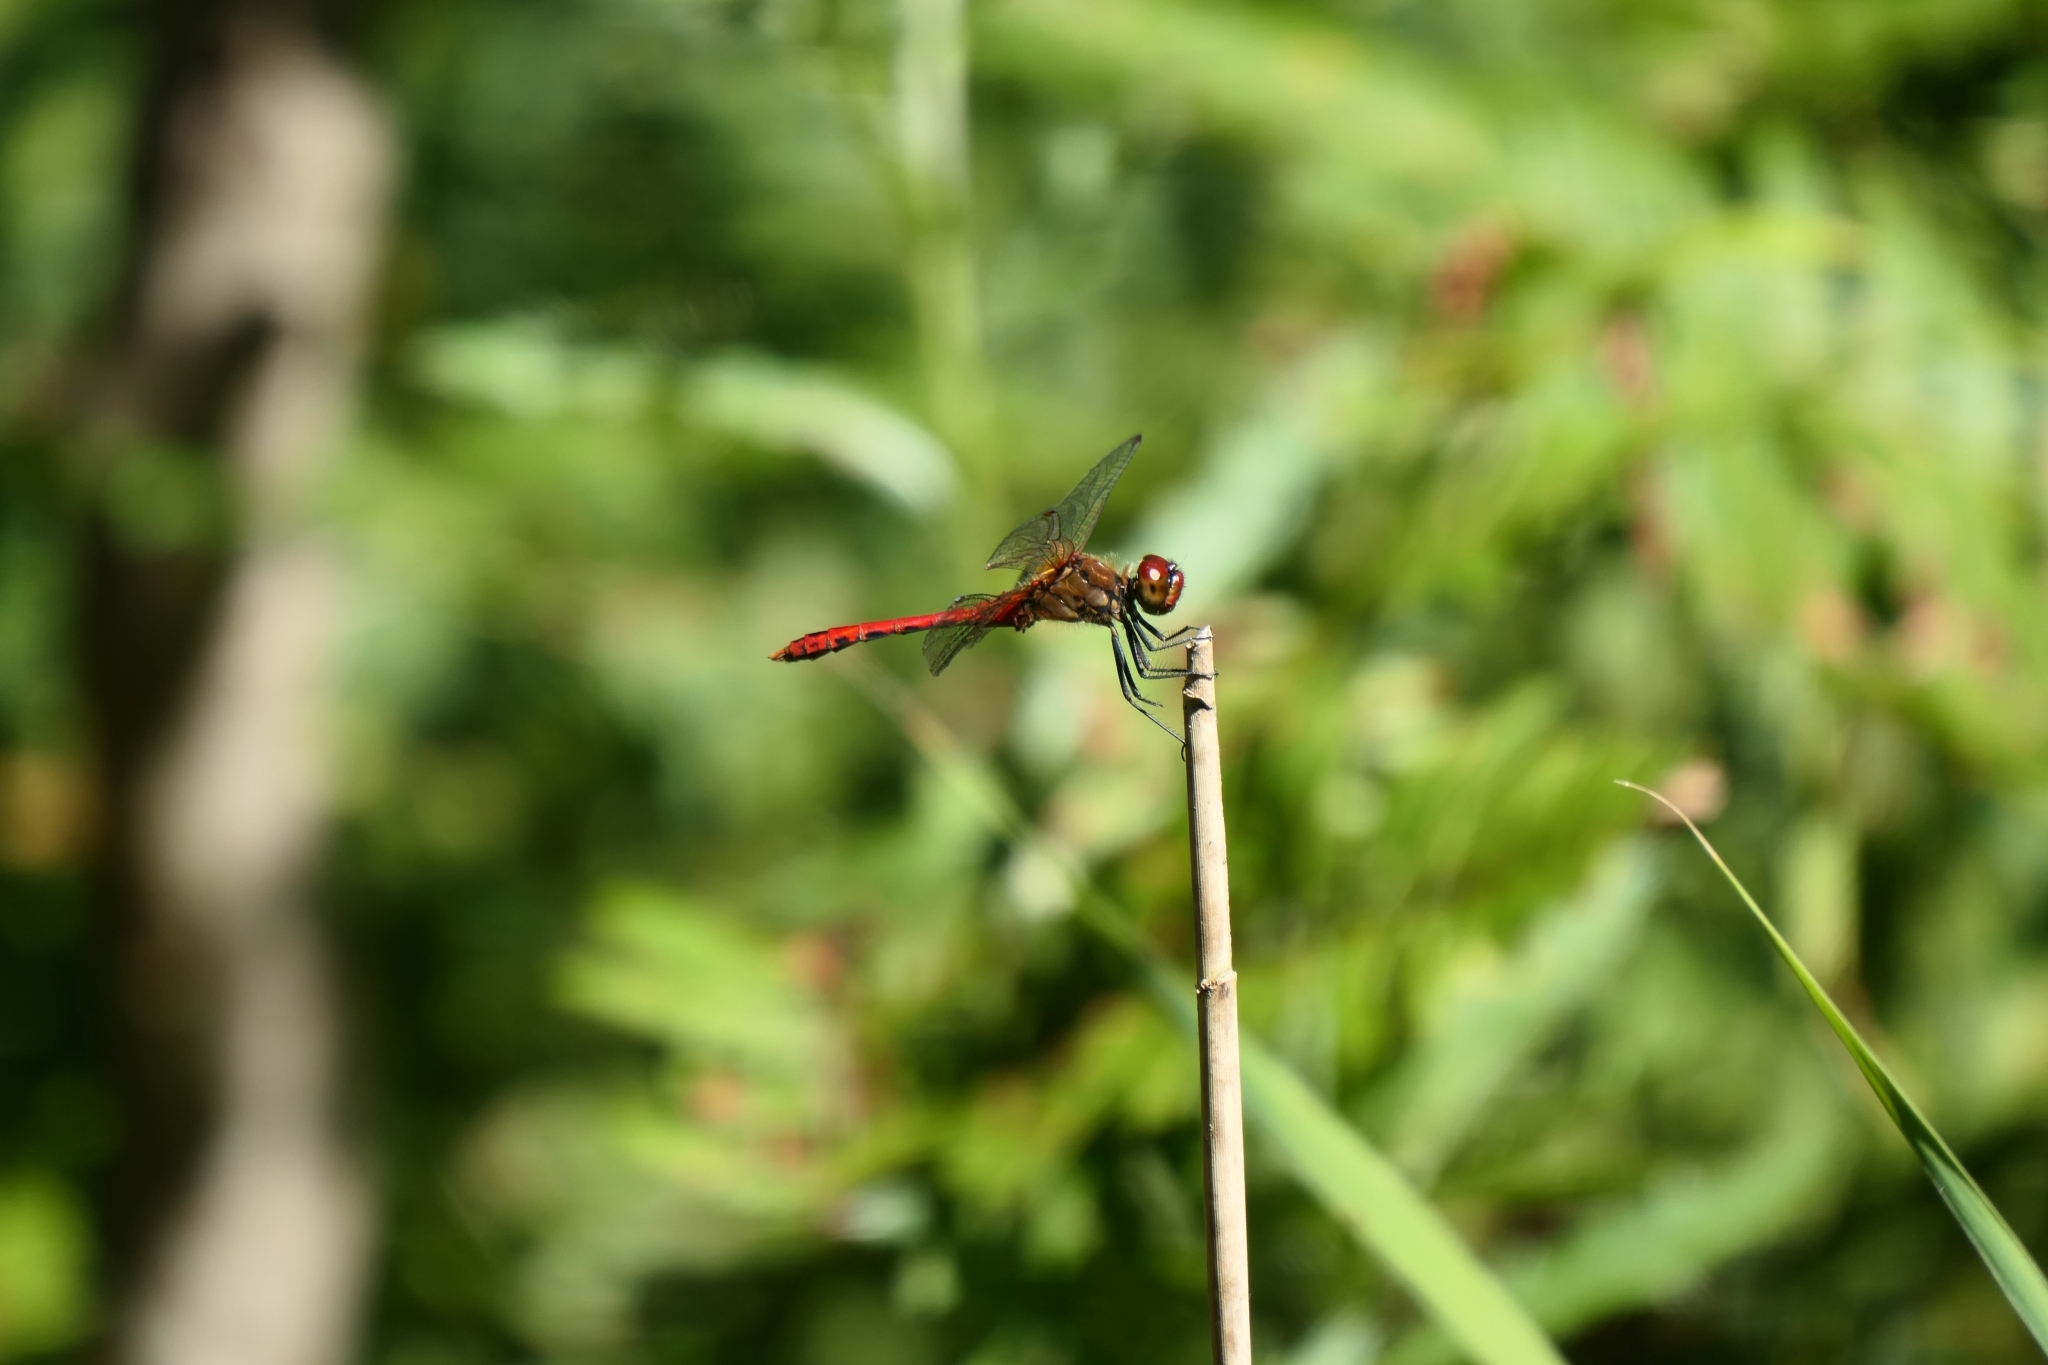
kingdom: Animalia
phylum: Arthropoda
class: Insecta
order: Odonata
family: Libellulidae
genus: Sympetrum
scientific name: Sympetrum vulgatum
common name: Vagrant darter
